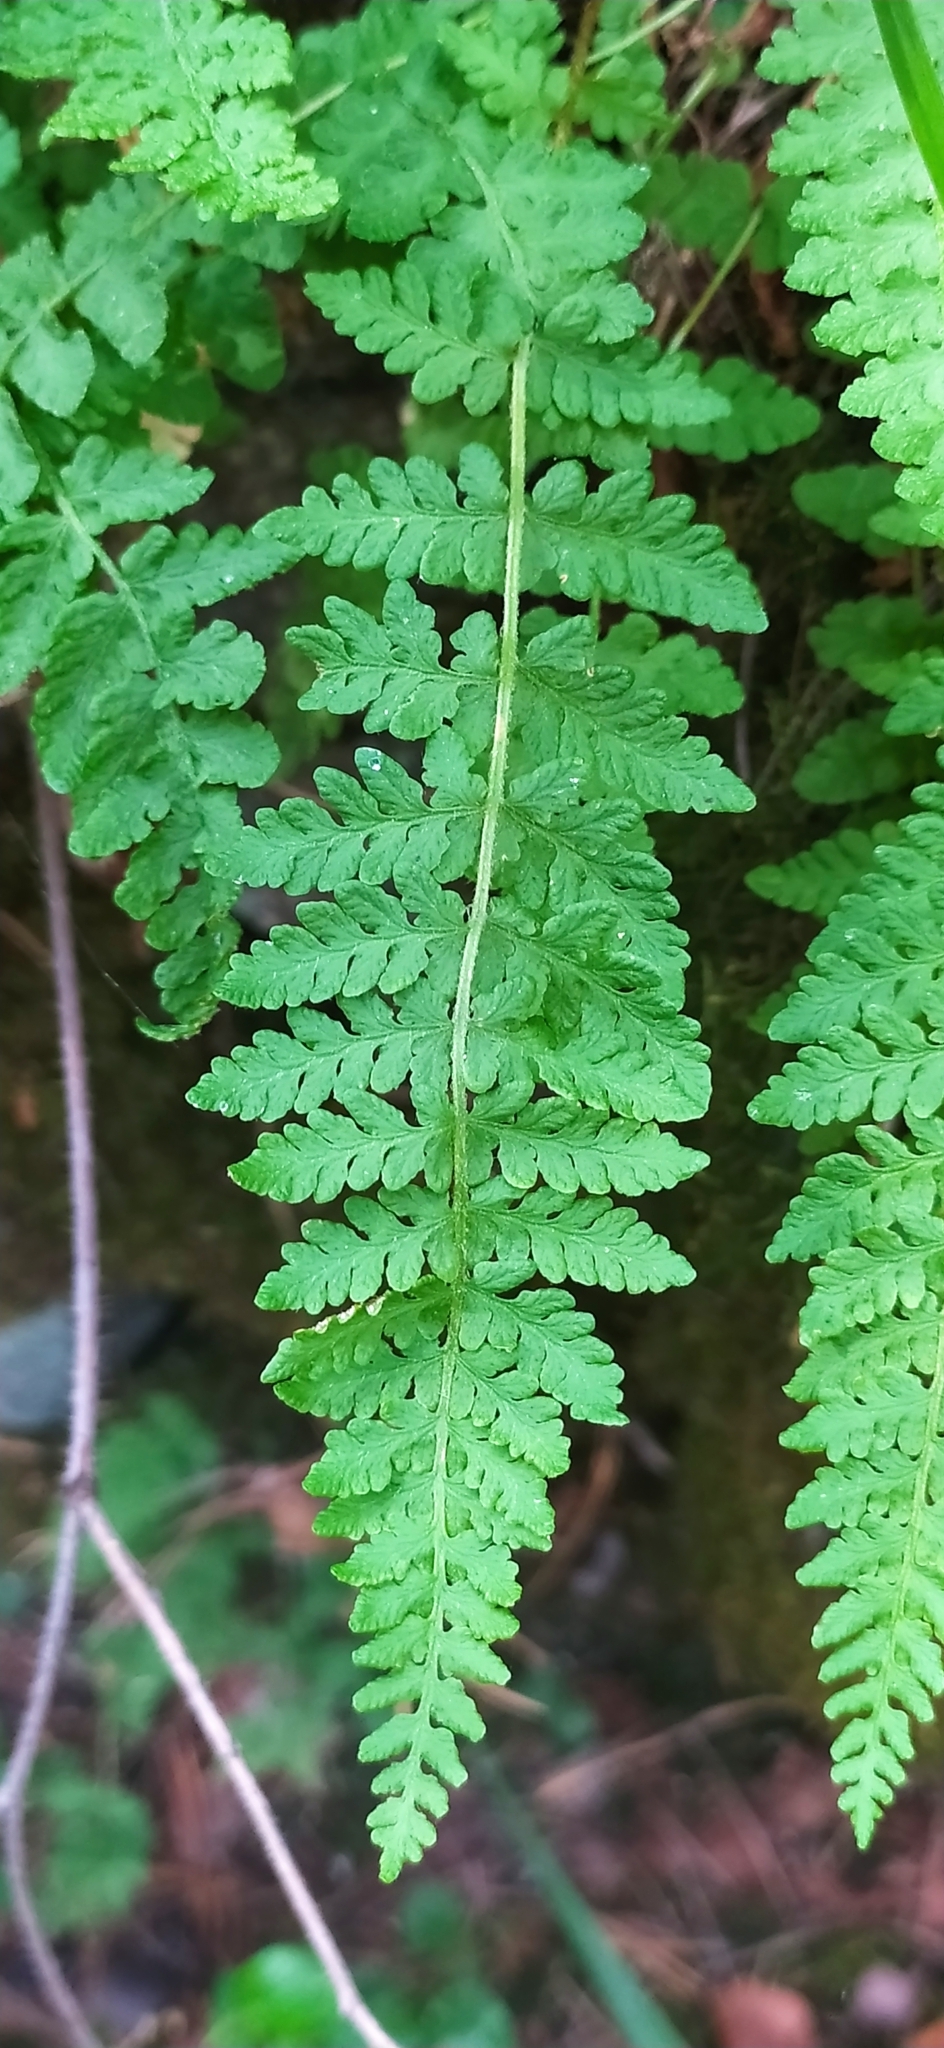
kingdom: Plantae
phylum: Tracheophyta
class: Polypodiopsida
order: Polypodiales
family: Woodsiaceae
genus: Woodsia
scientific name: Woodsia ilvensis
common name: Fragrant woodsia
